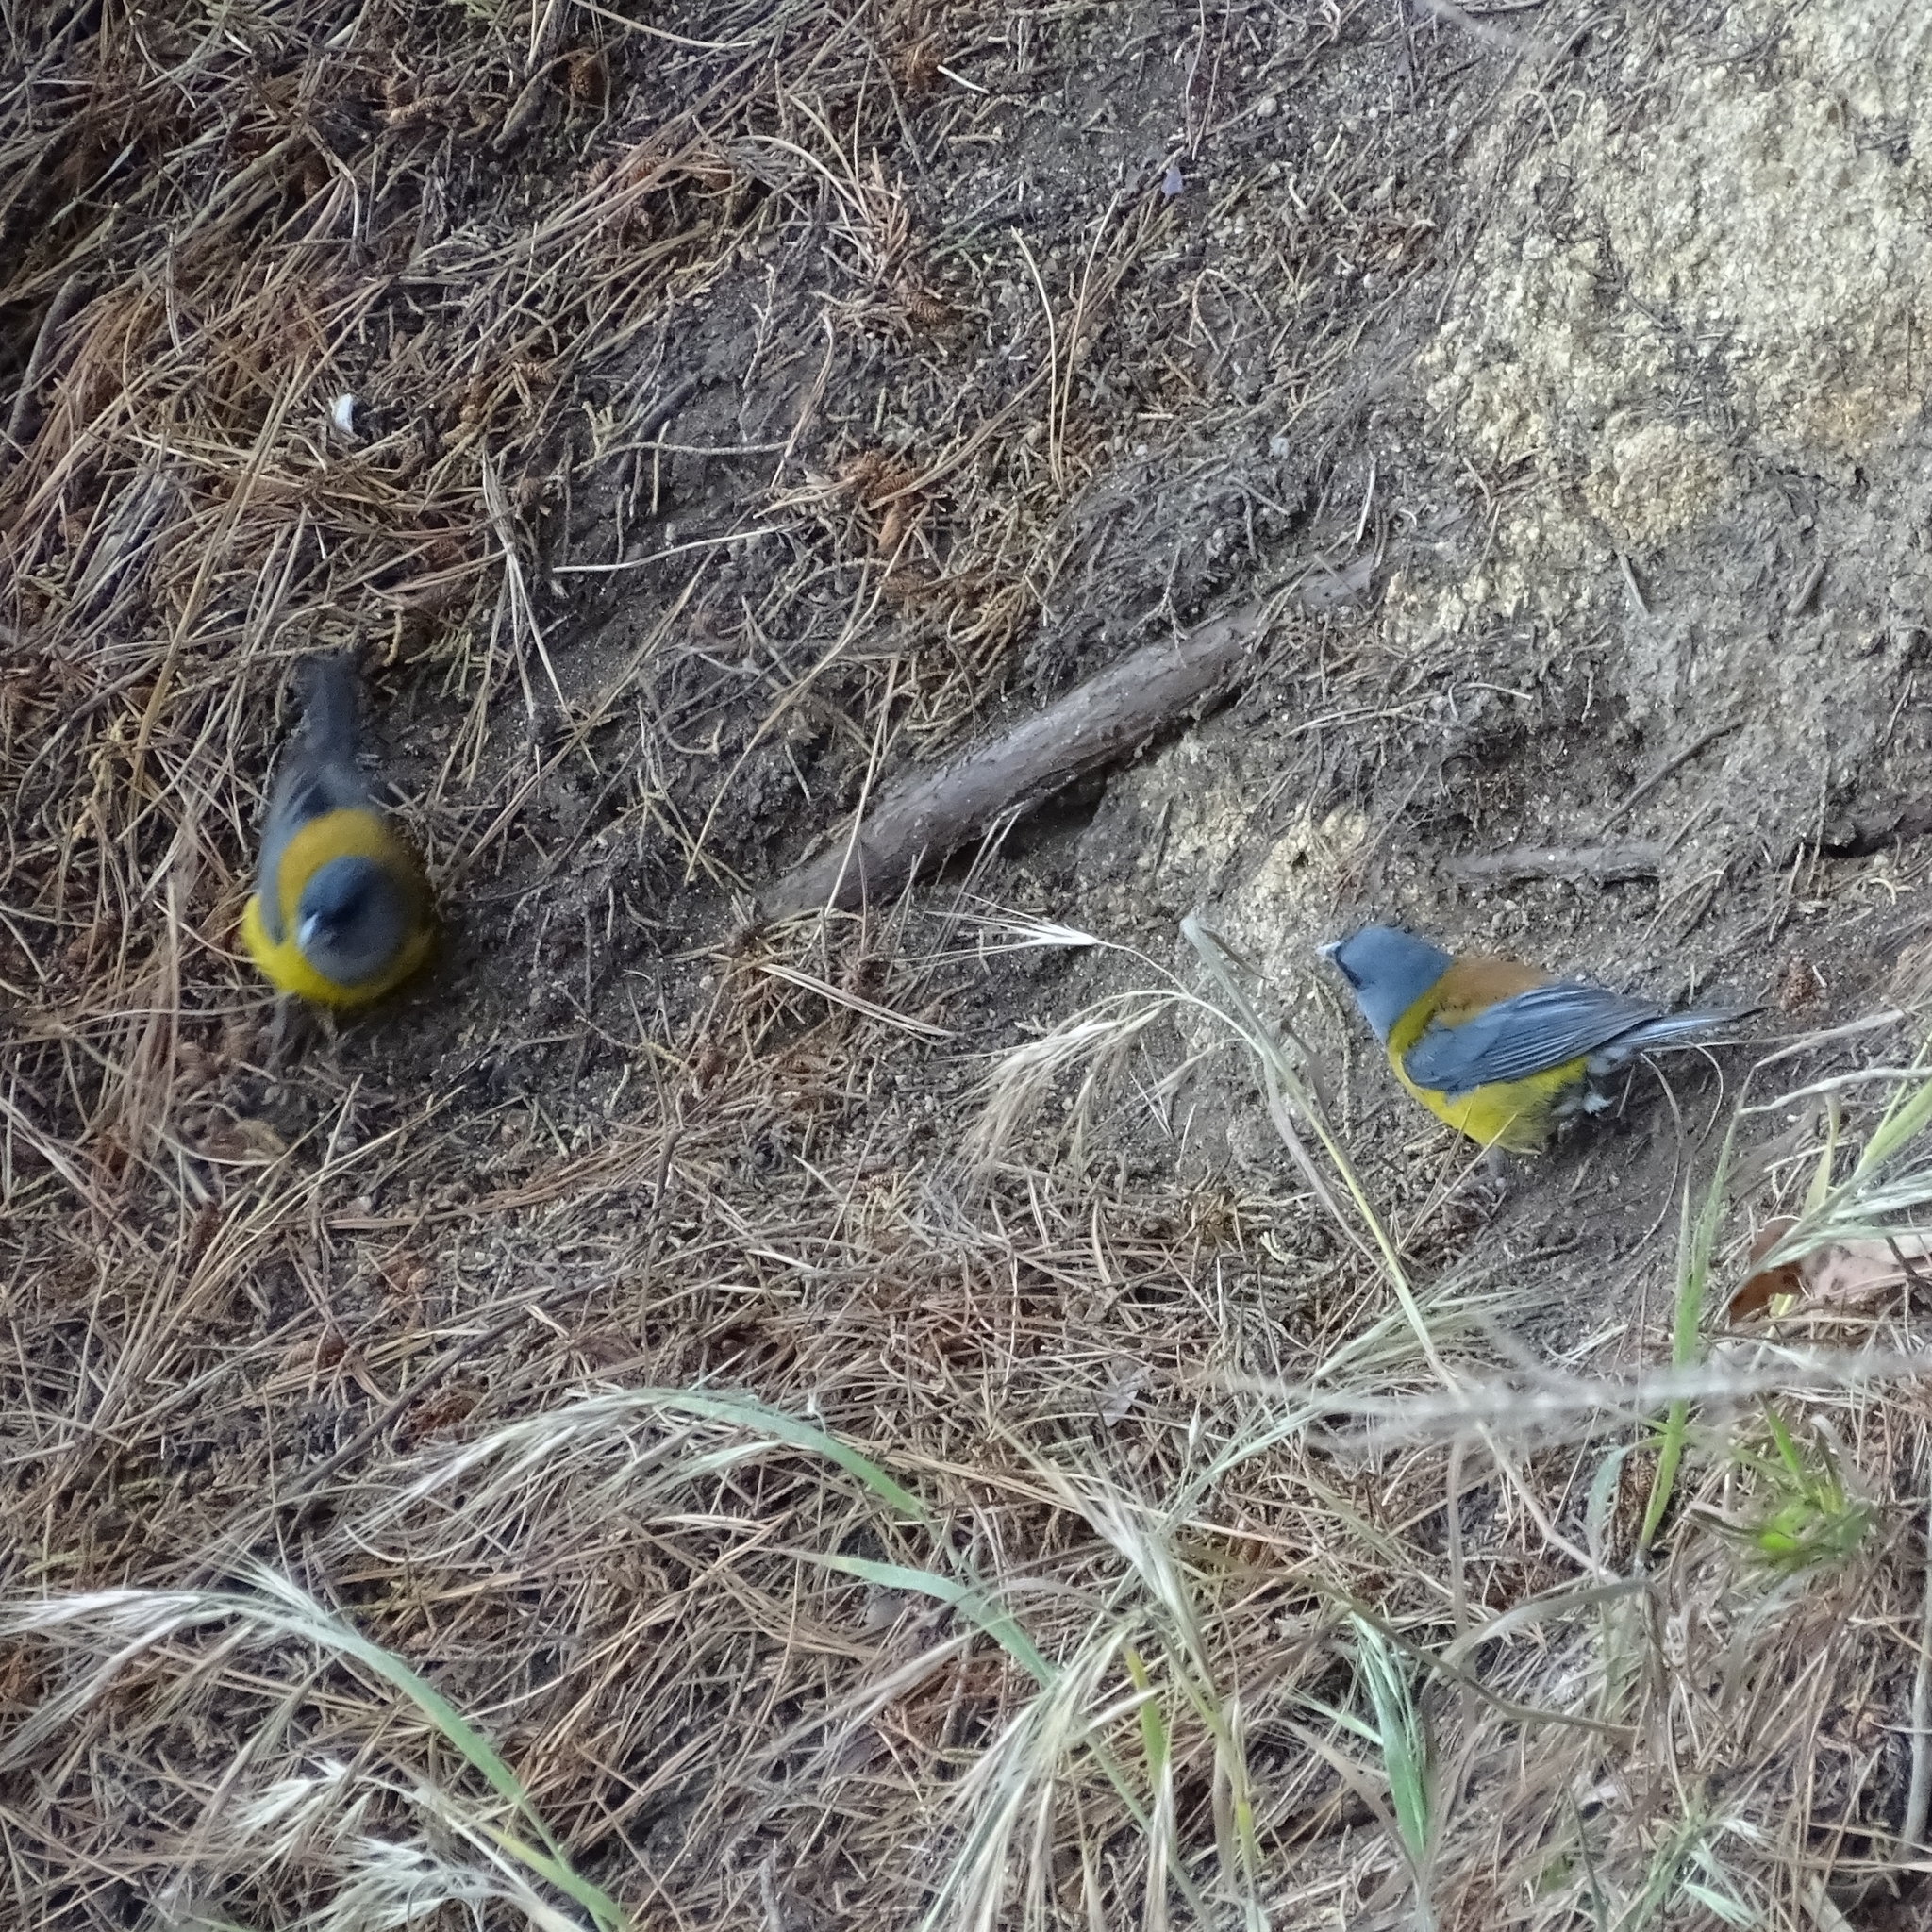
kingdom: Animalia
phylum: Chordata
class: Aves
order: Passeriformes
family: Thraupidae
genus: Phrygilus
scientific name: Phrygilus patagonicus
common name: Patagonian sierra finch
